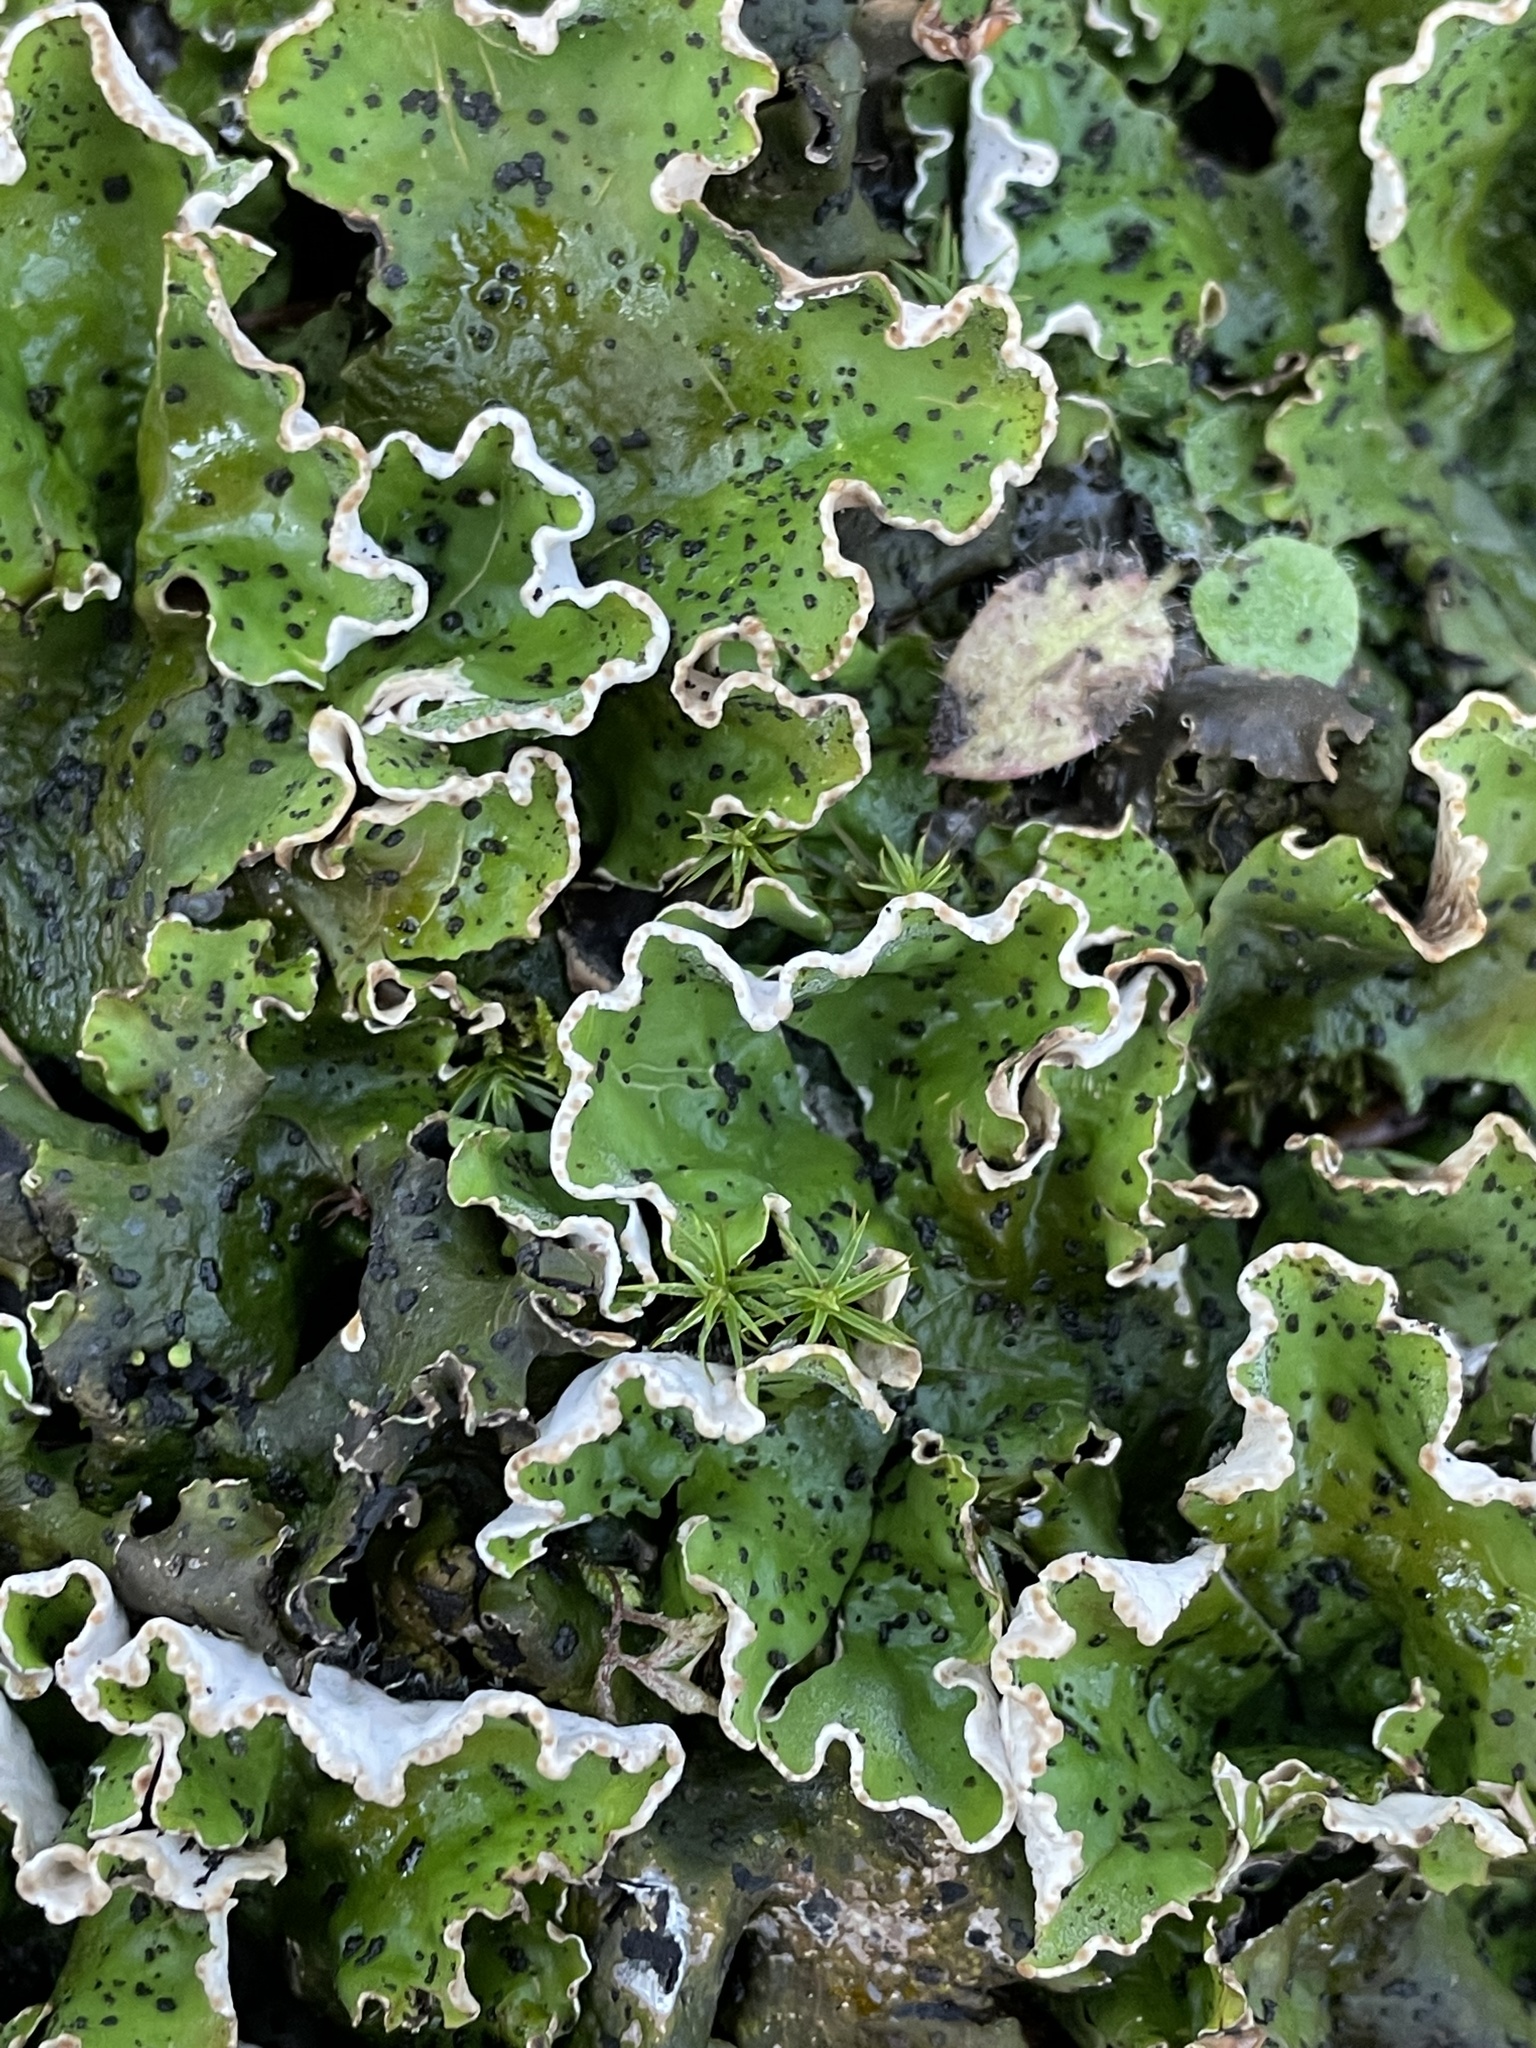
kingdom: Fungi
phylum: Ascomycota
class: Lecanoromycetes
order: Peltigerales
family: Peltigeraceae
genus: Peltigera
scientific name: Peltigera aphthosa
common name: Common freckle pelt lichen
